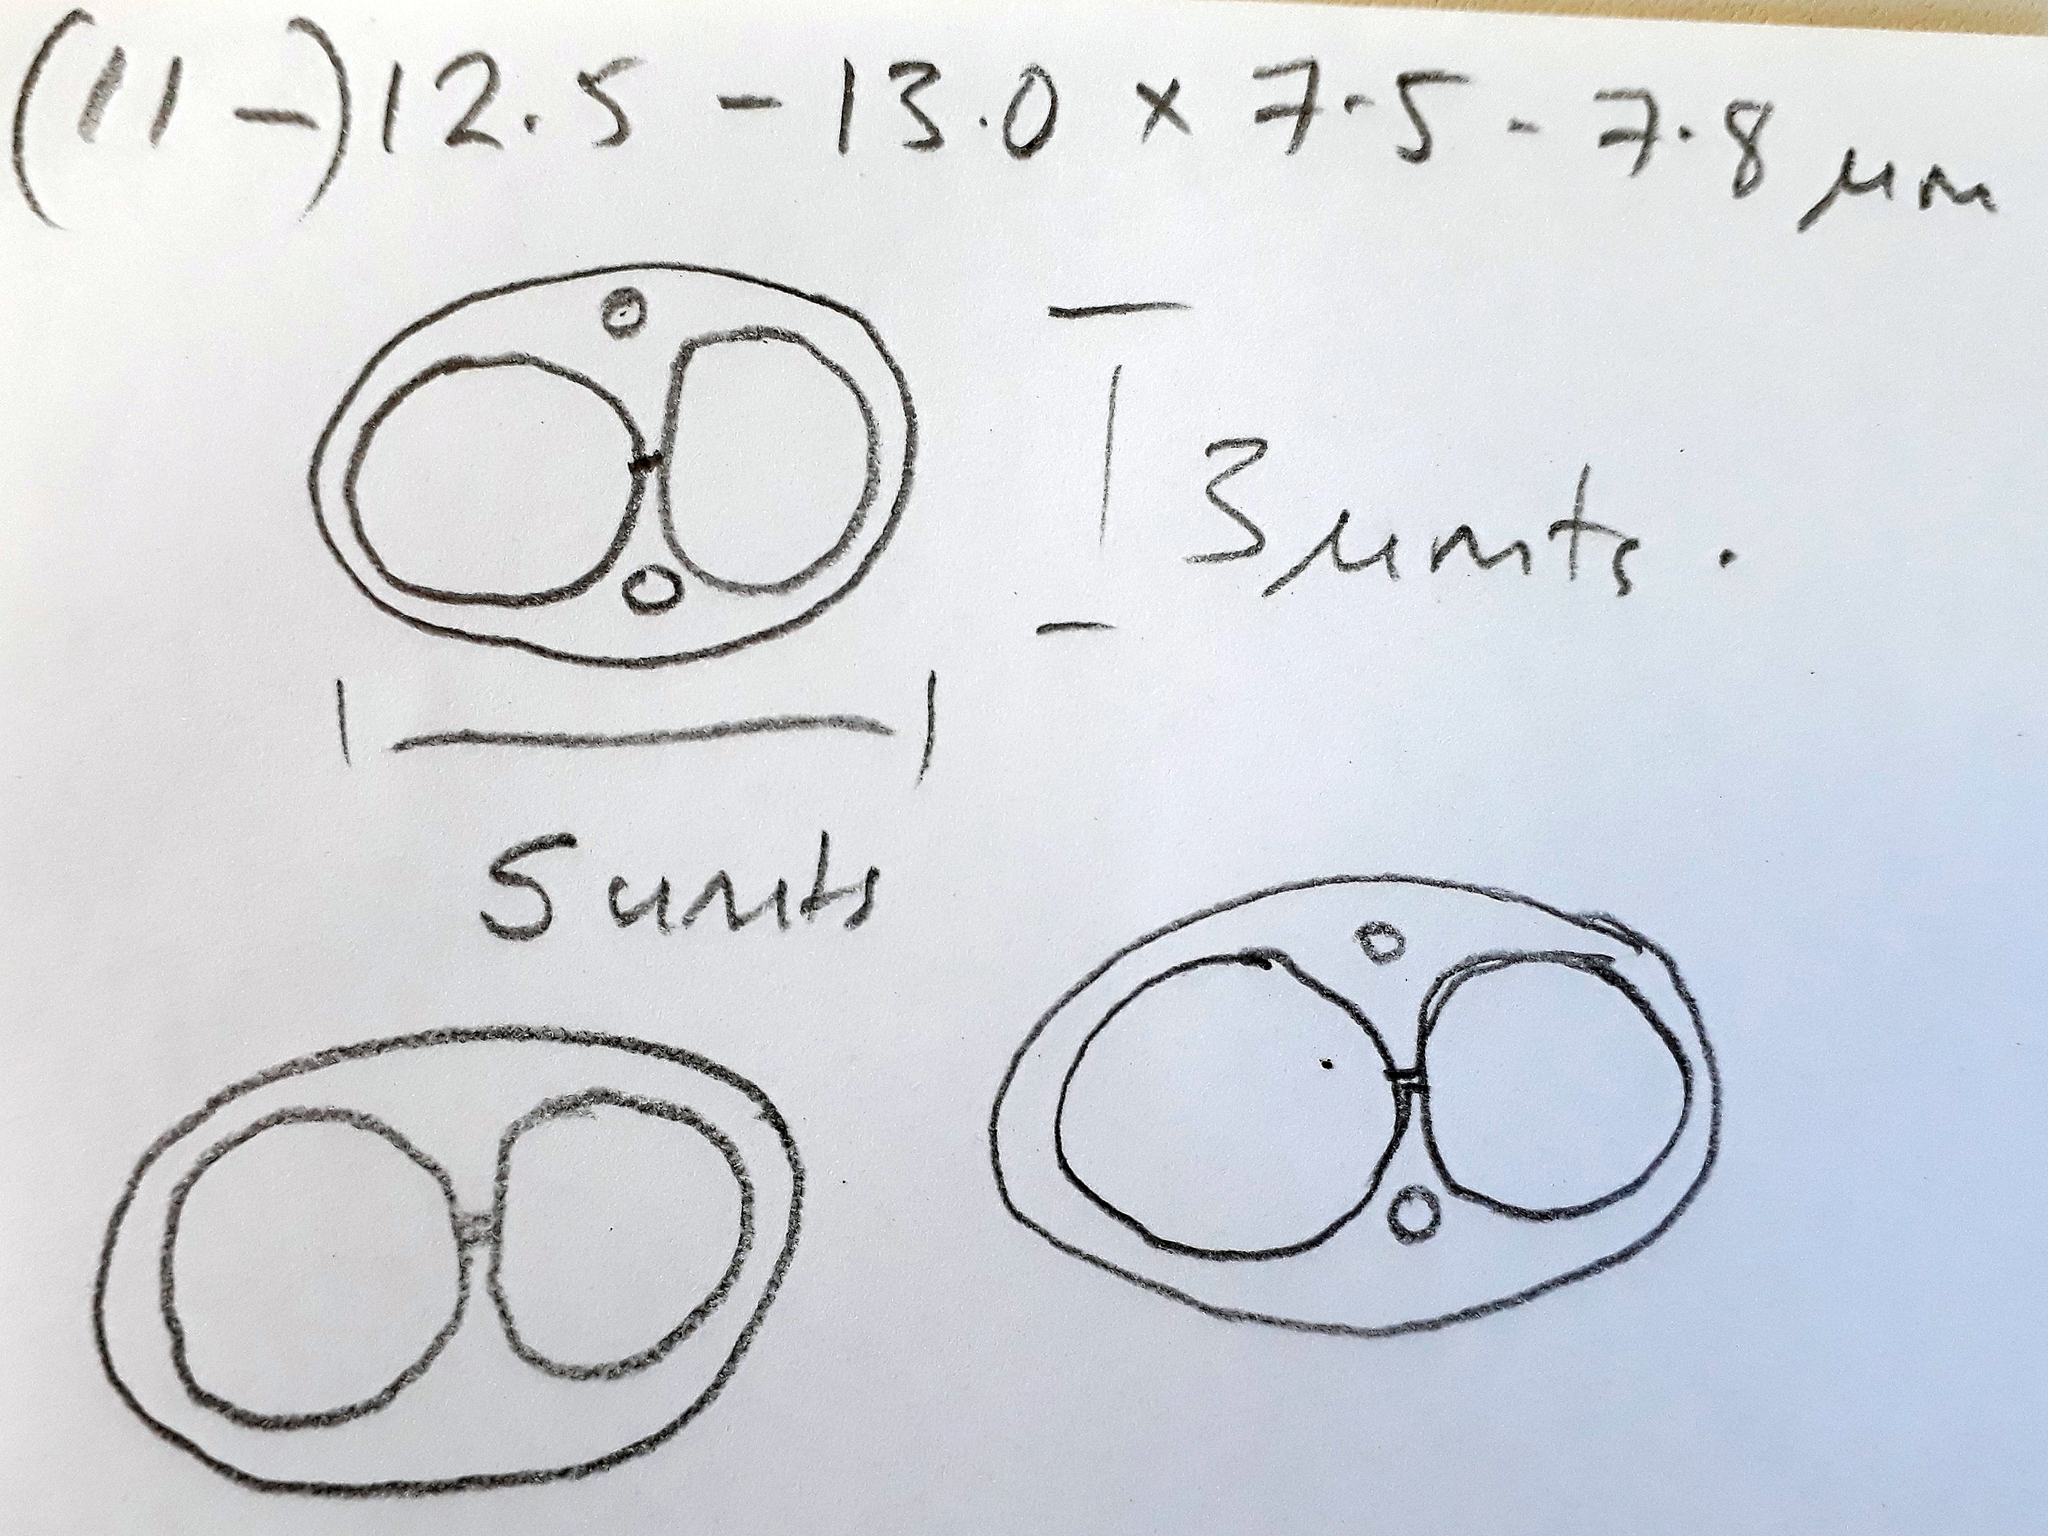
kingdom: Fungi
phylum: Ascomycota
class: Lecanoromycetes
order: Lecanorales
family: Lecanoraceae
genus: Lecanora
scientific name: Lecanora kohu
